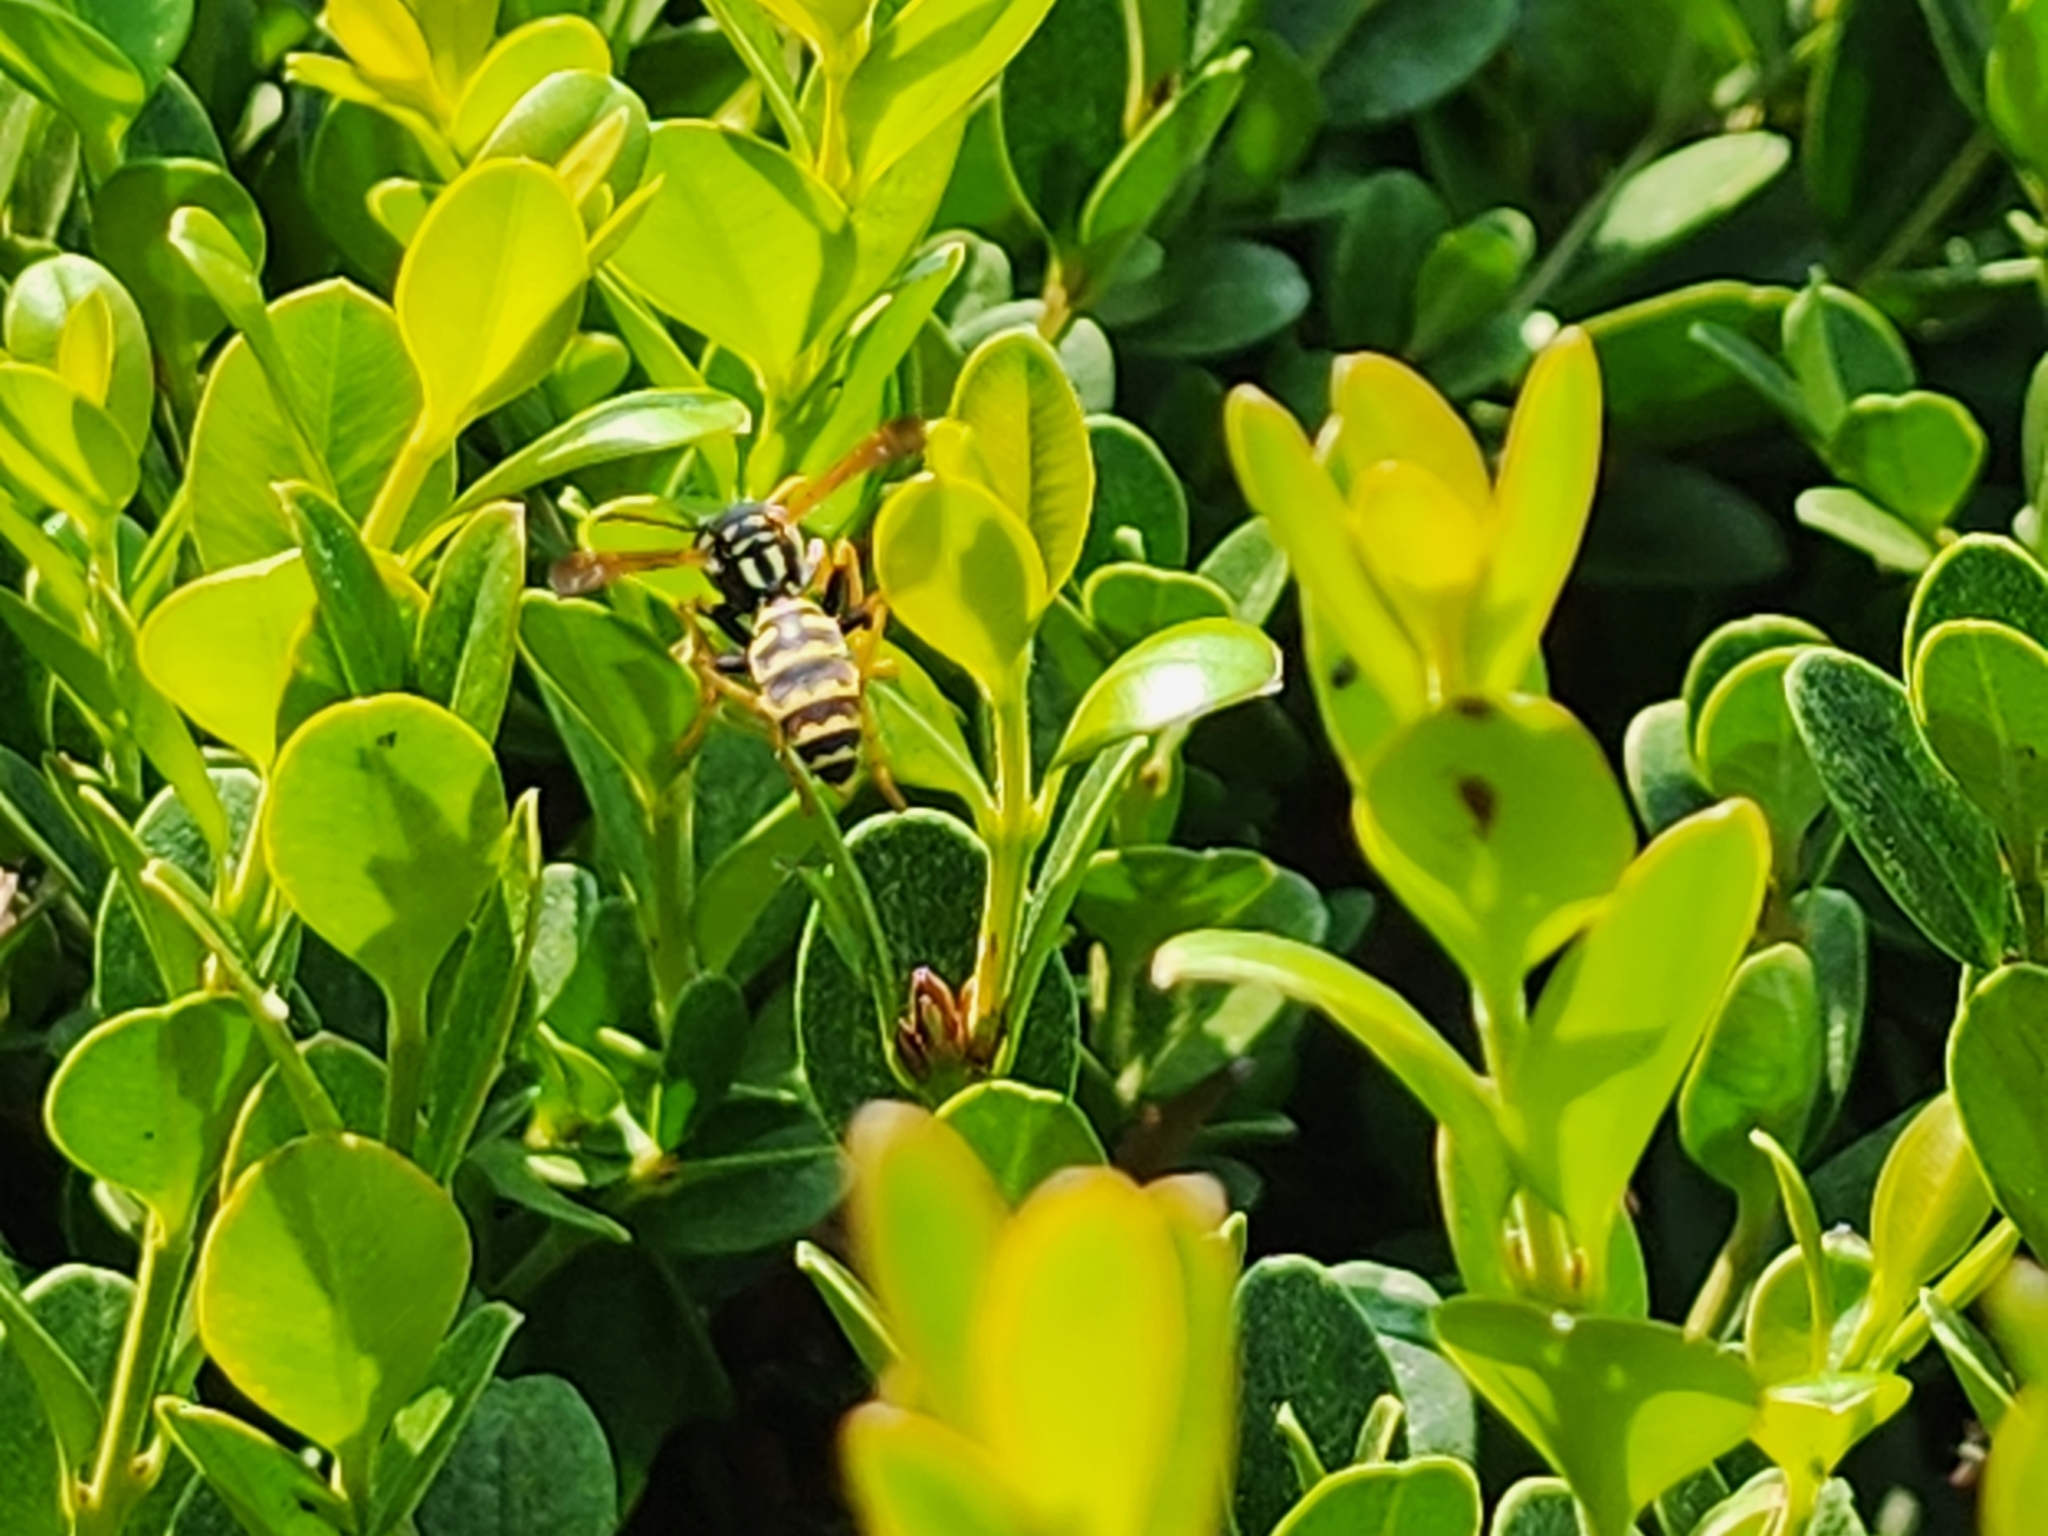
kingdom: Animalia
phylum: Arthropoda
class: Insecta
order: Hymenoptera
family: Eumenidae
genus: Polistes
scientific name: Polistes dominula
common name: Paper wasp
